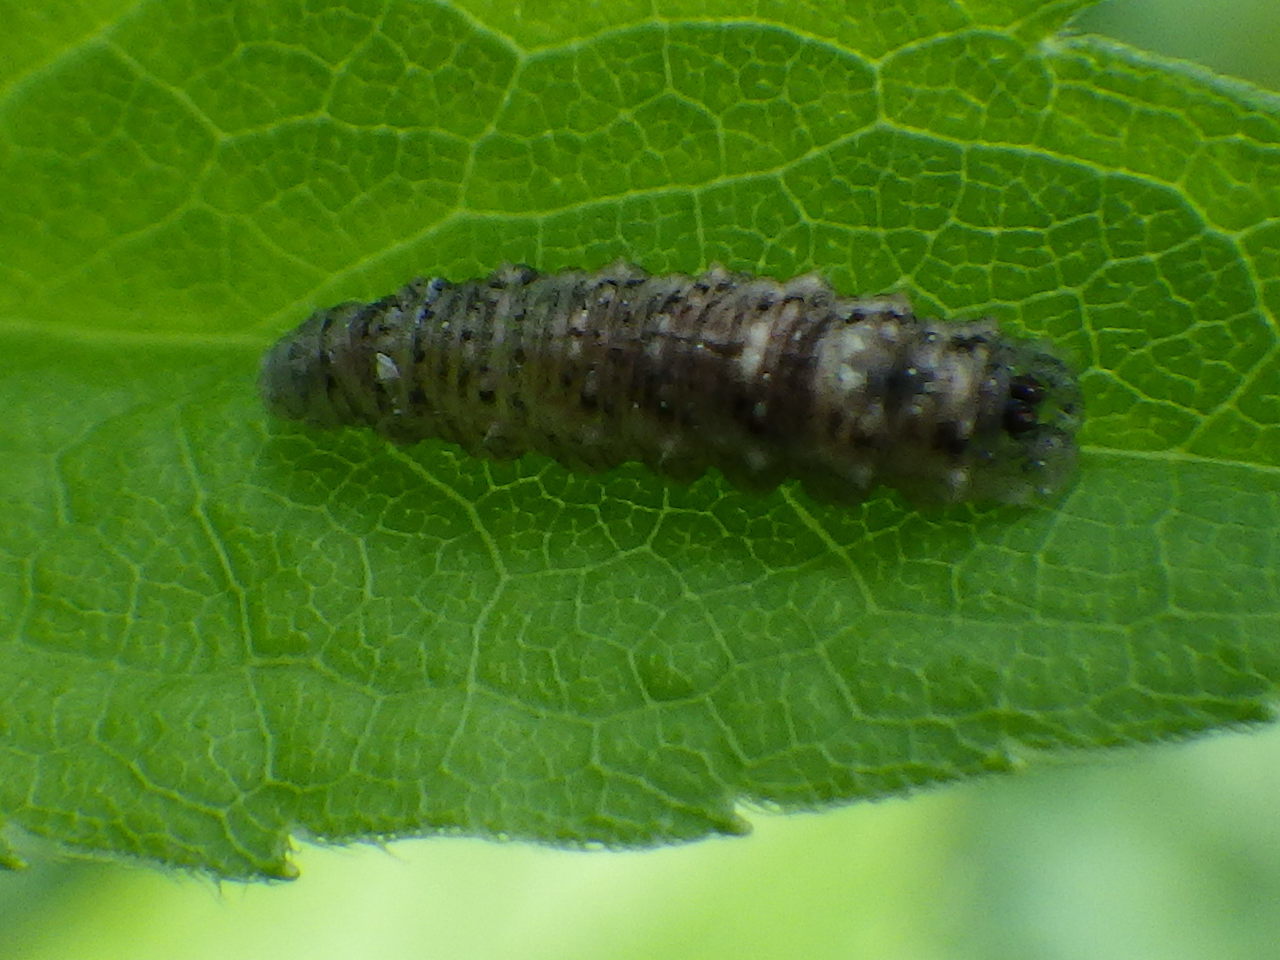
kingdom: Animalia
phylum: Arthropoda
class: Insecta
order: Diptera
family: Syrphidae
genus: Eupeodes
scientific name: Eupeodes americanus
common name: Long-tailed aphideater
